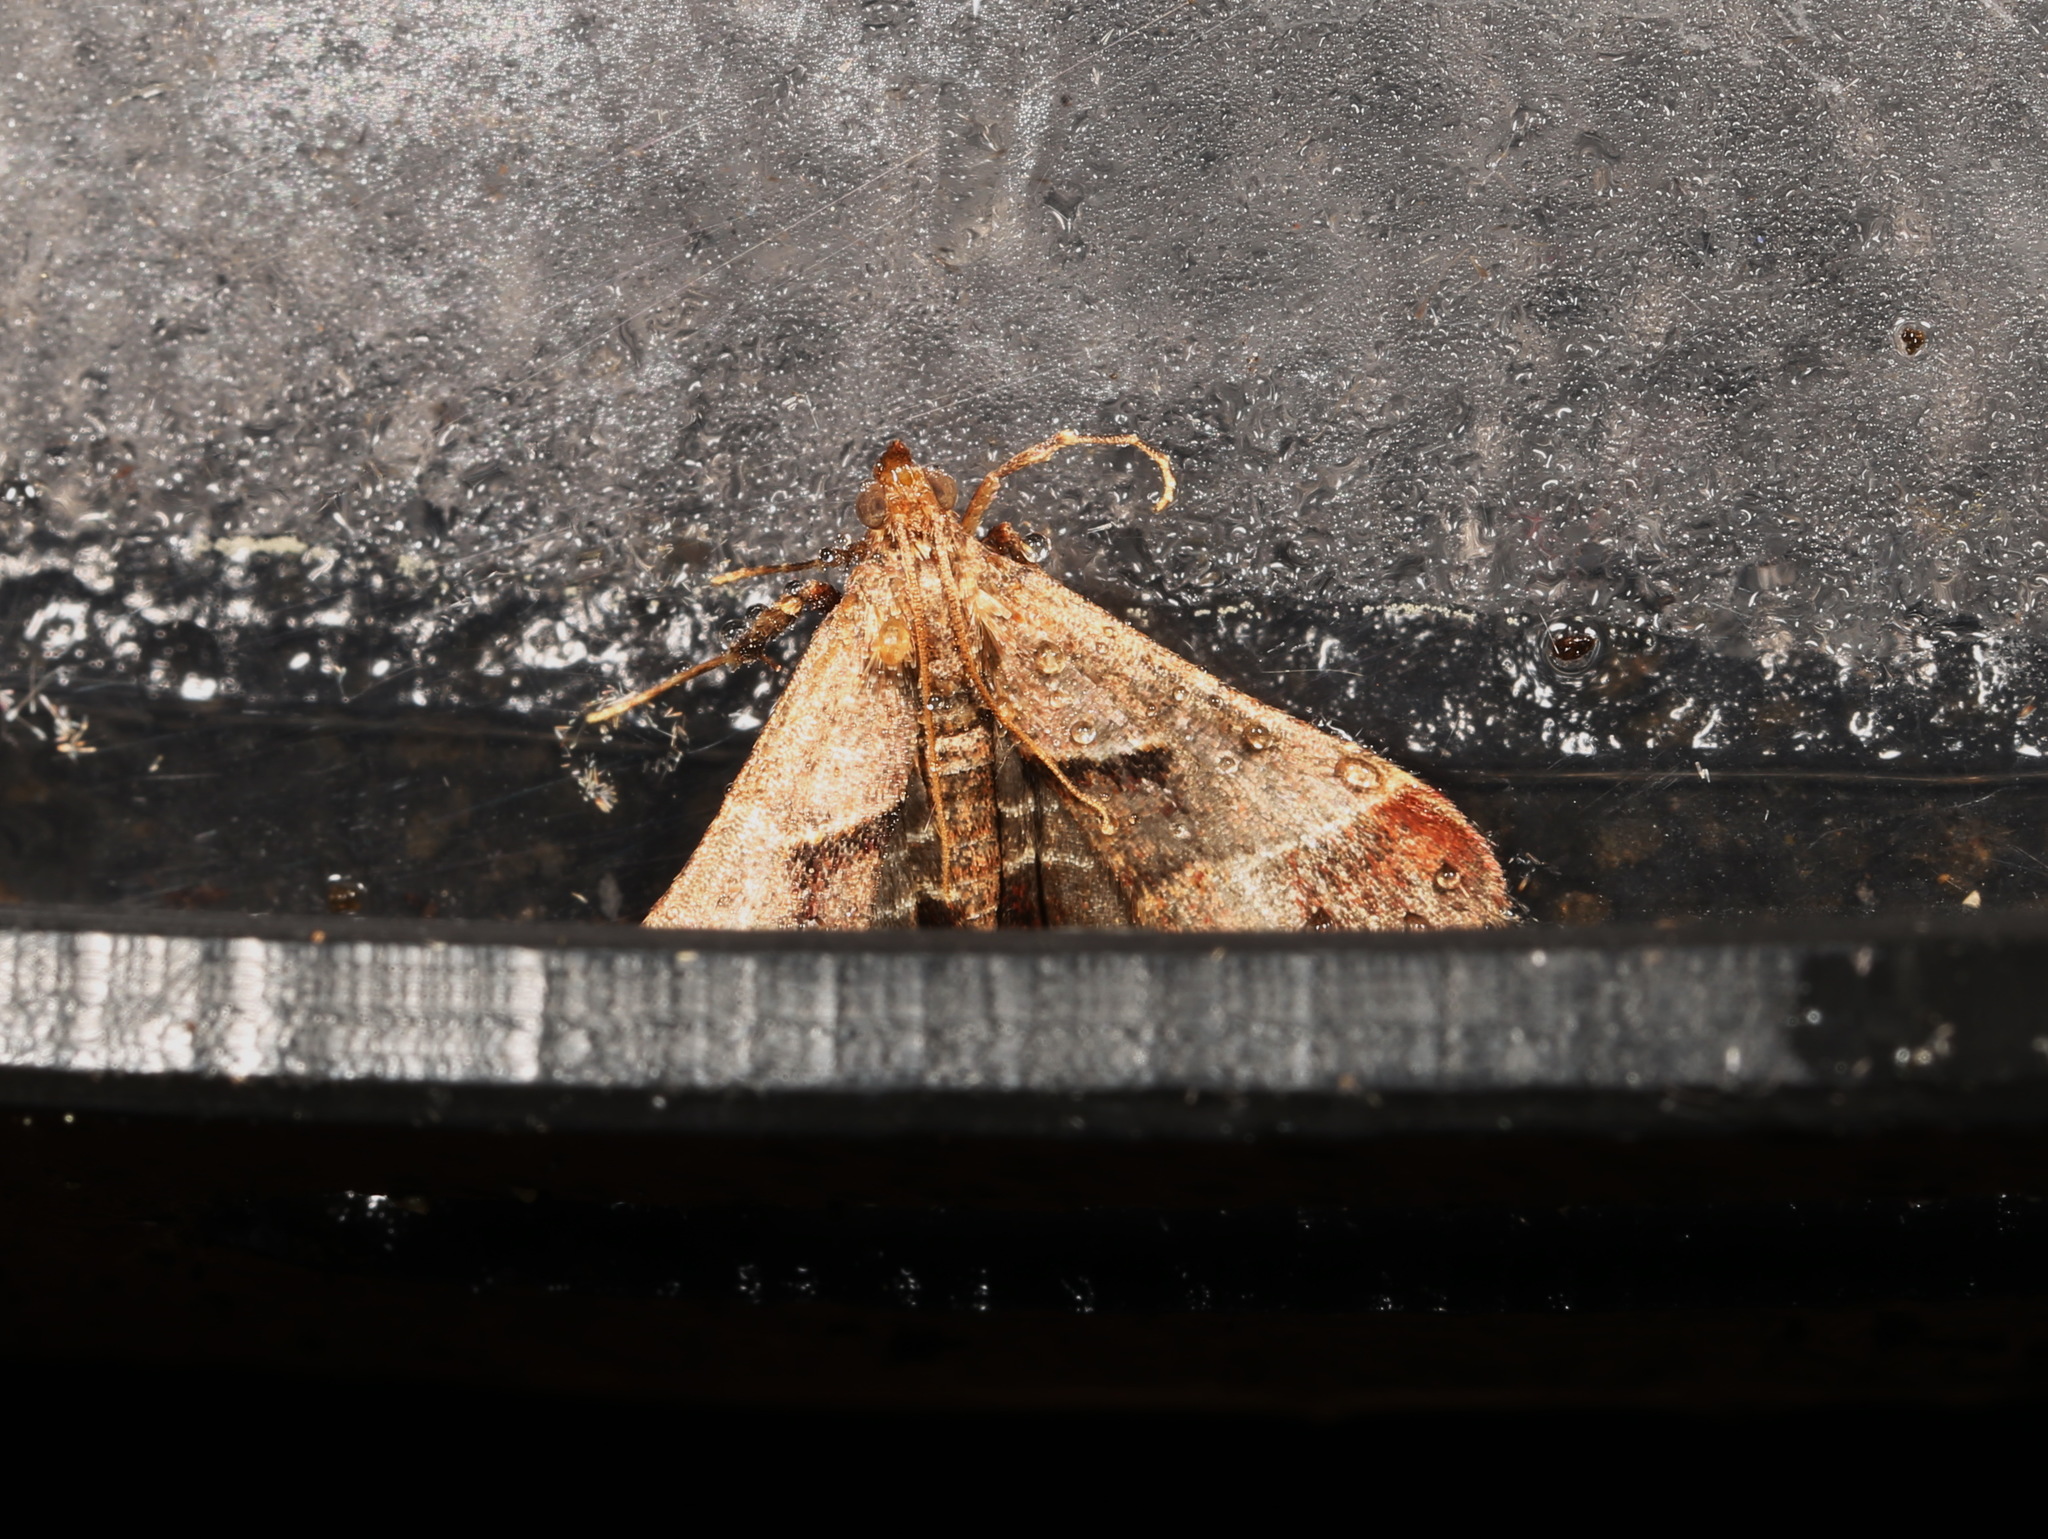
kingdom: Animalia
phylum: Arthropoda
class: Insecta
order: Lepidoptera
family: Pyralidae
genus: Gauna
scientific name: Gauna aegusalis
